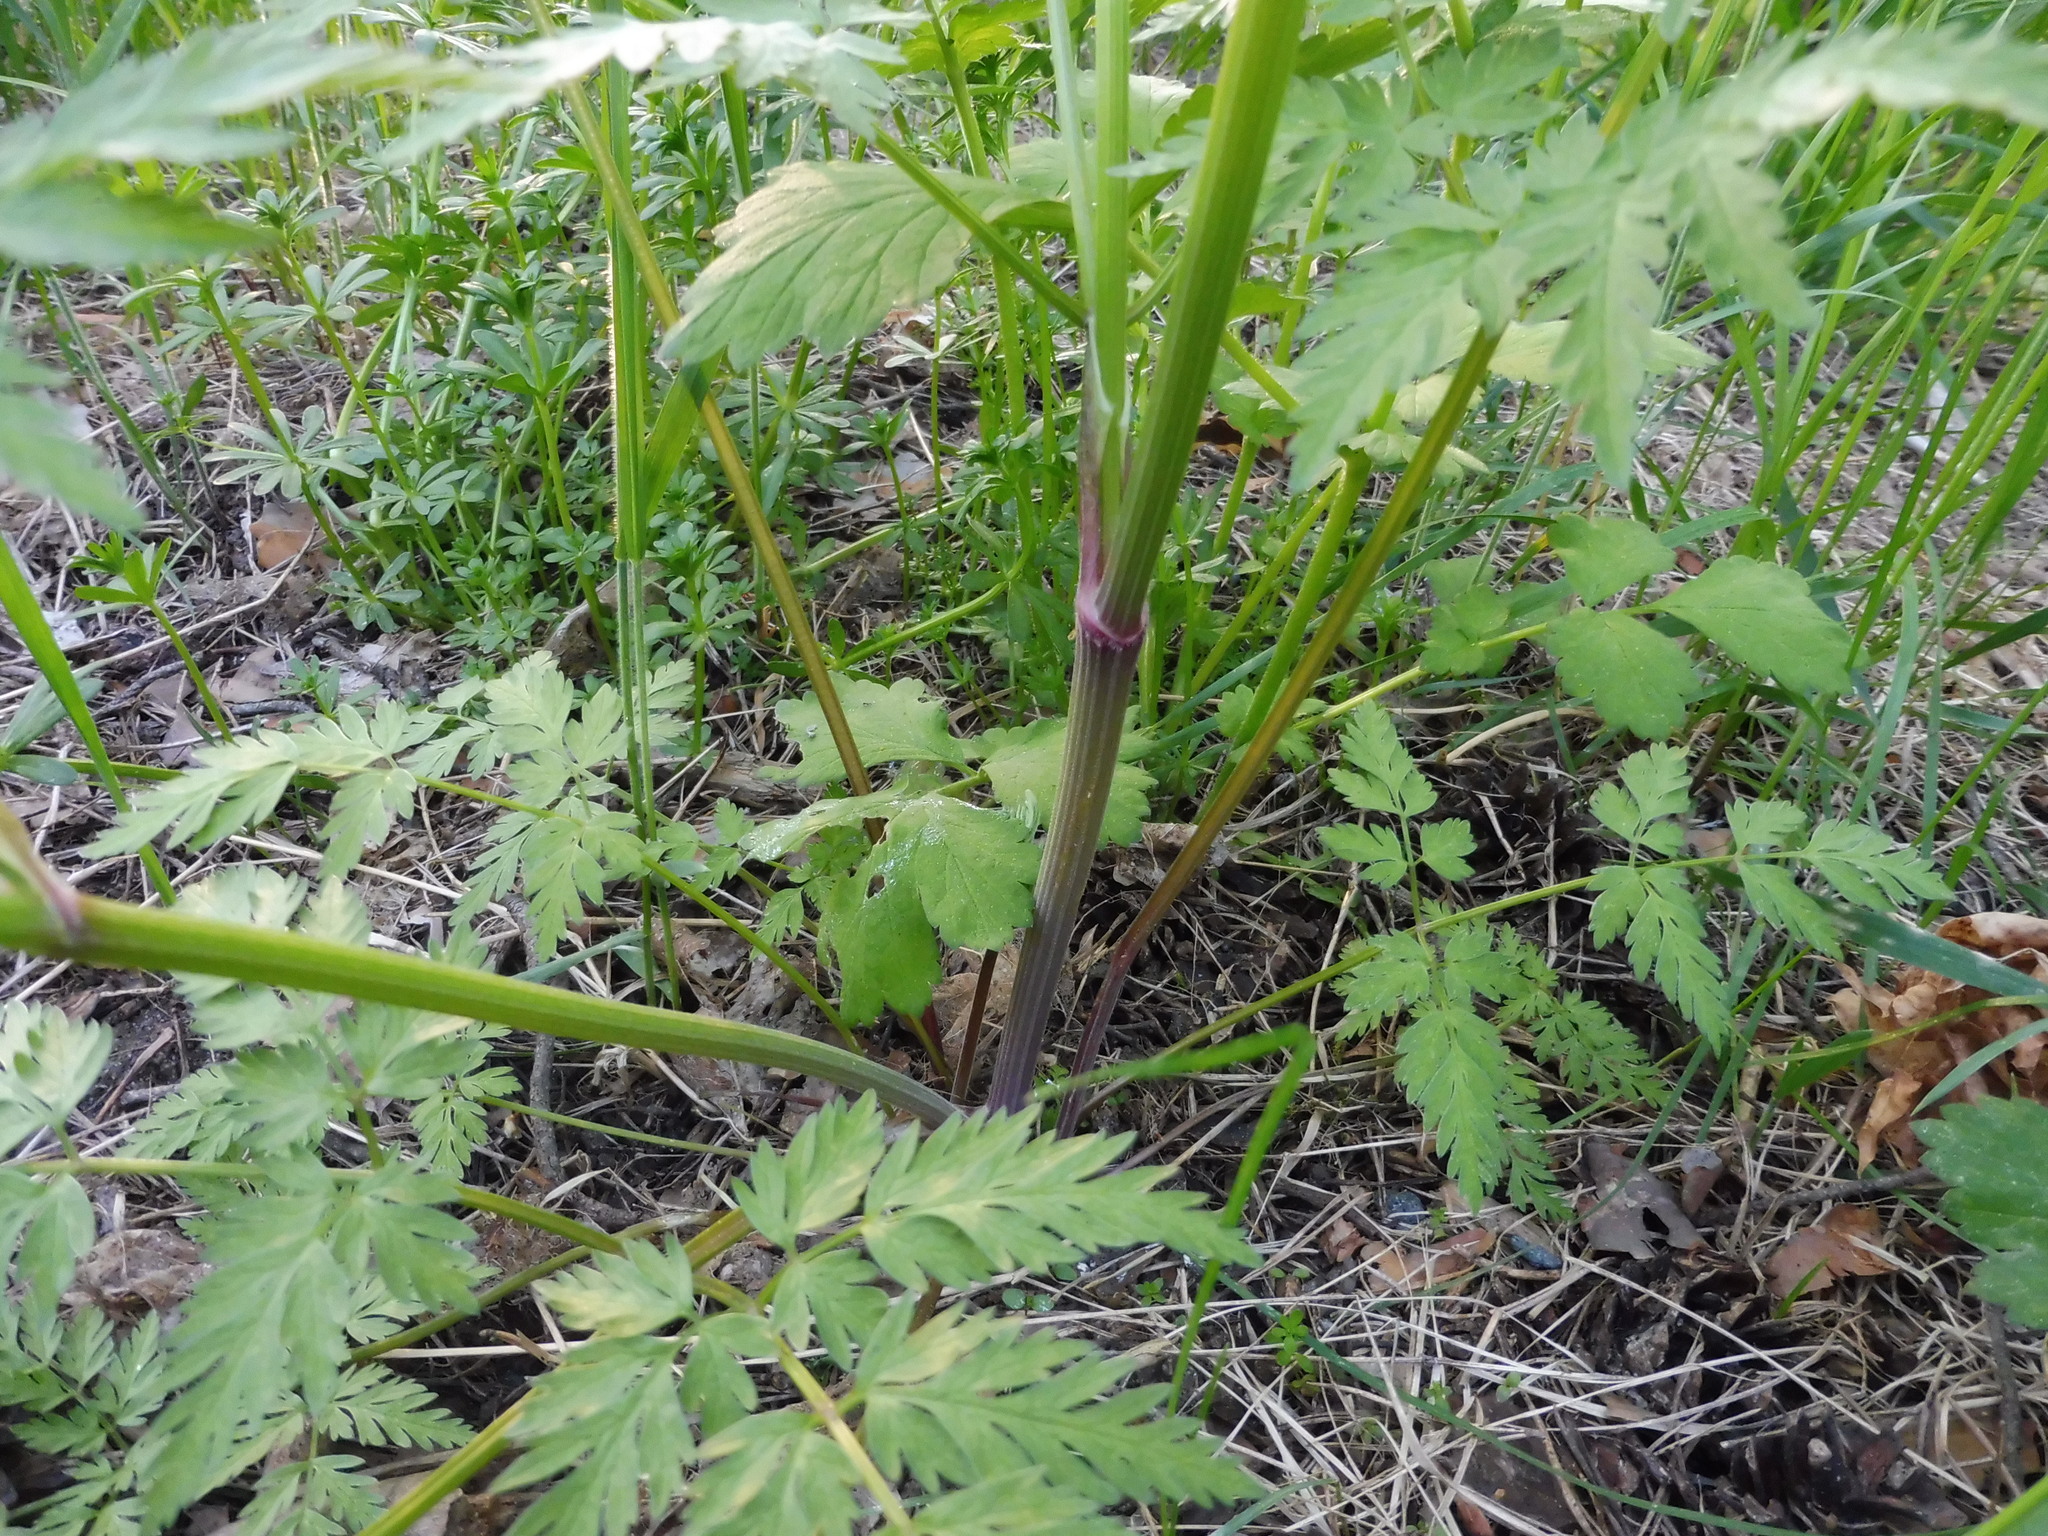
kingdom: Plantae
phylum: Tracheophyta
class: Magnoliopsida
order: Apiales
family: Apiaceae
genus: Anthriscus
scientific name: Anthriscus sylvestris
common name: Cow parsley
